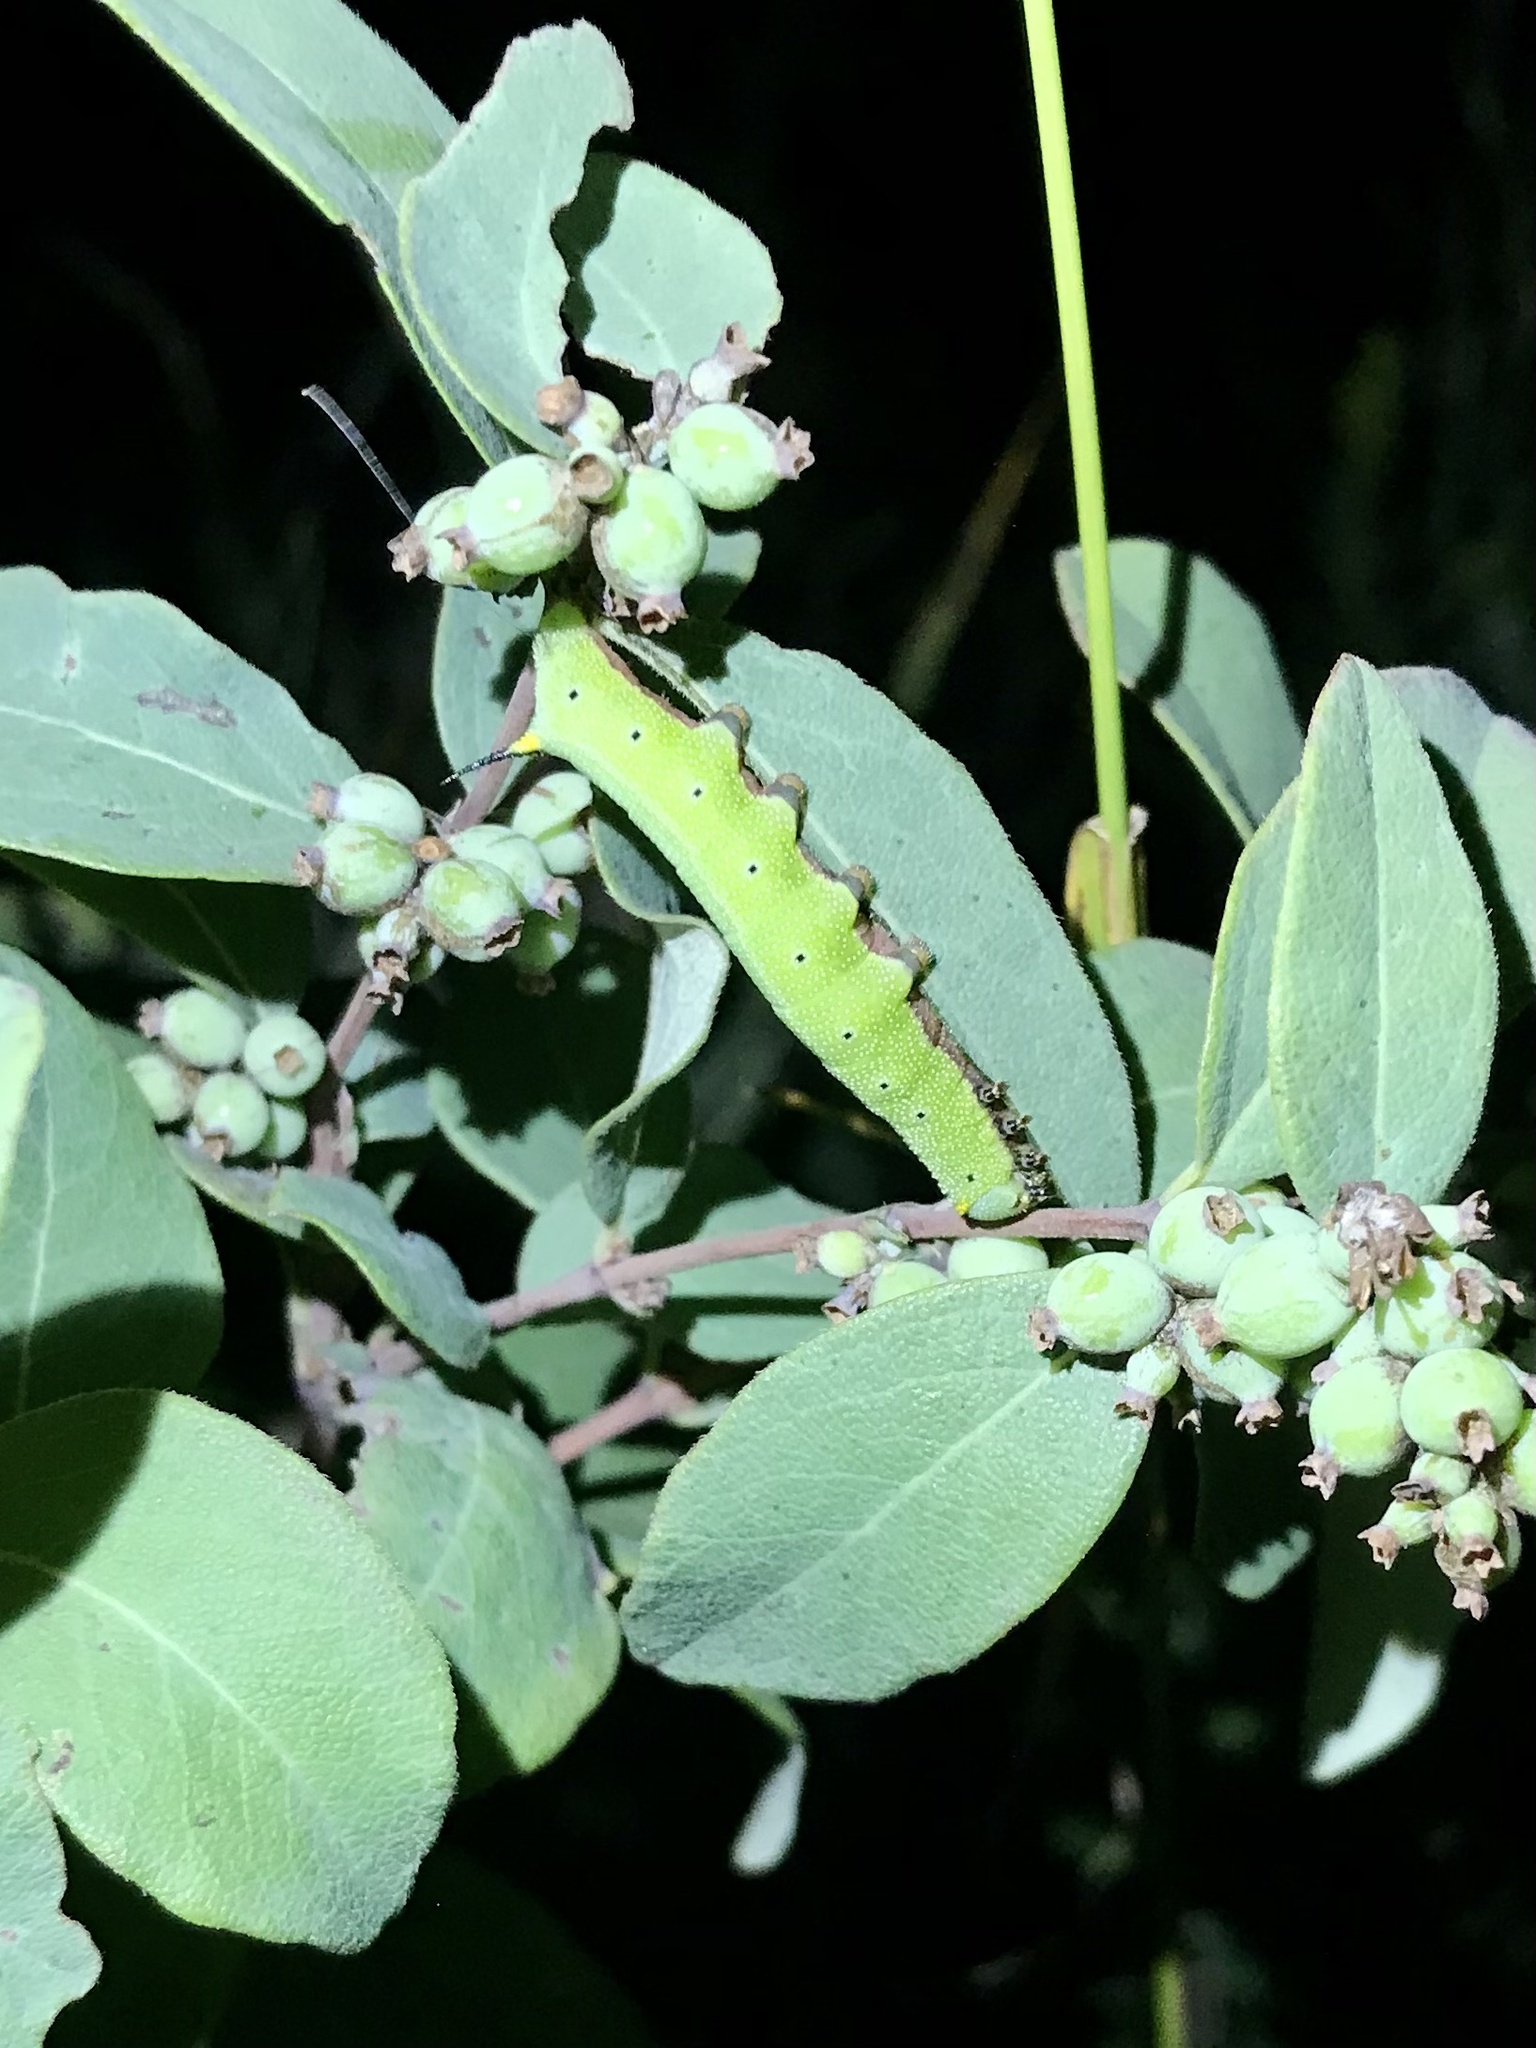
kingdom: Animalia
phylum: Arthropoda
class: Insecta
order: Lepidoptera
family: Sphingidae
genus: Hemaris
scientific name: Hemaris diffinis
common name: Bumblebee moth
